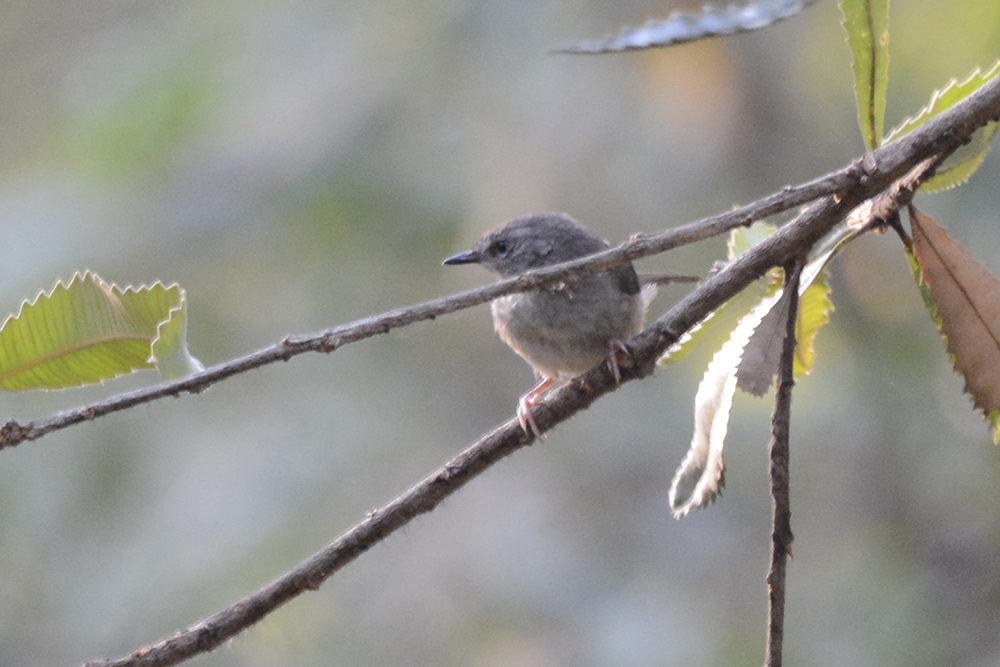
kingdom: Animalia
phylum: Chordata
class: Aves
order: Passeriformes
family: Acanthizidae
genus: Sericornis
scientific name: Sericornis frontalis
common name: White-browed scrubwren
